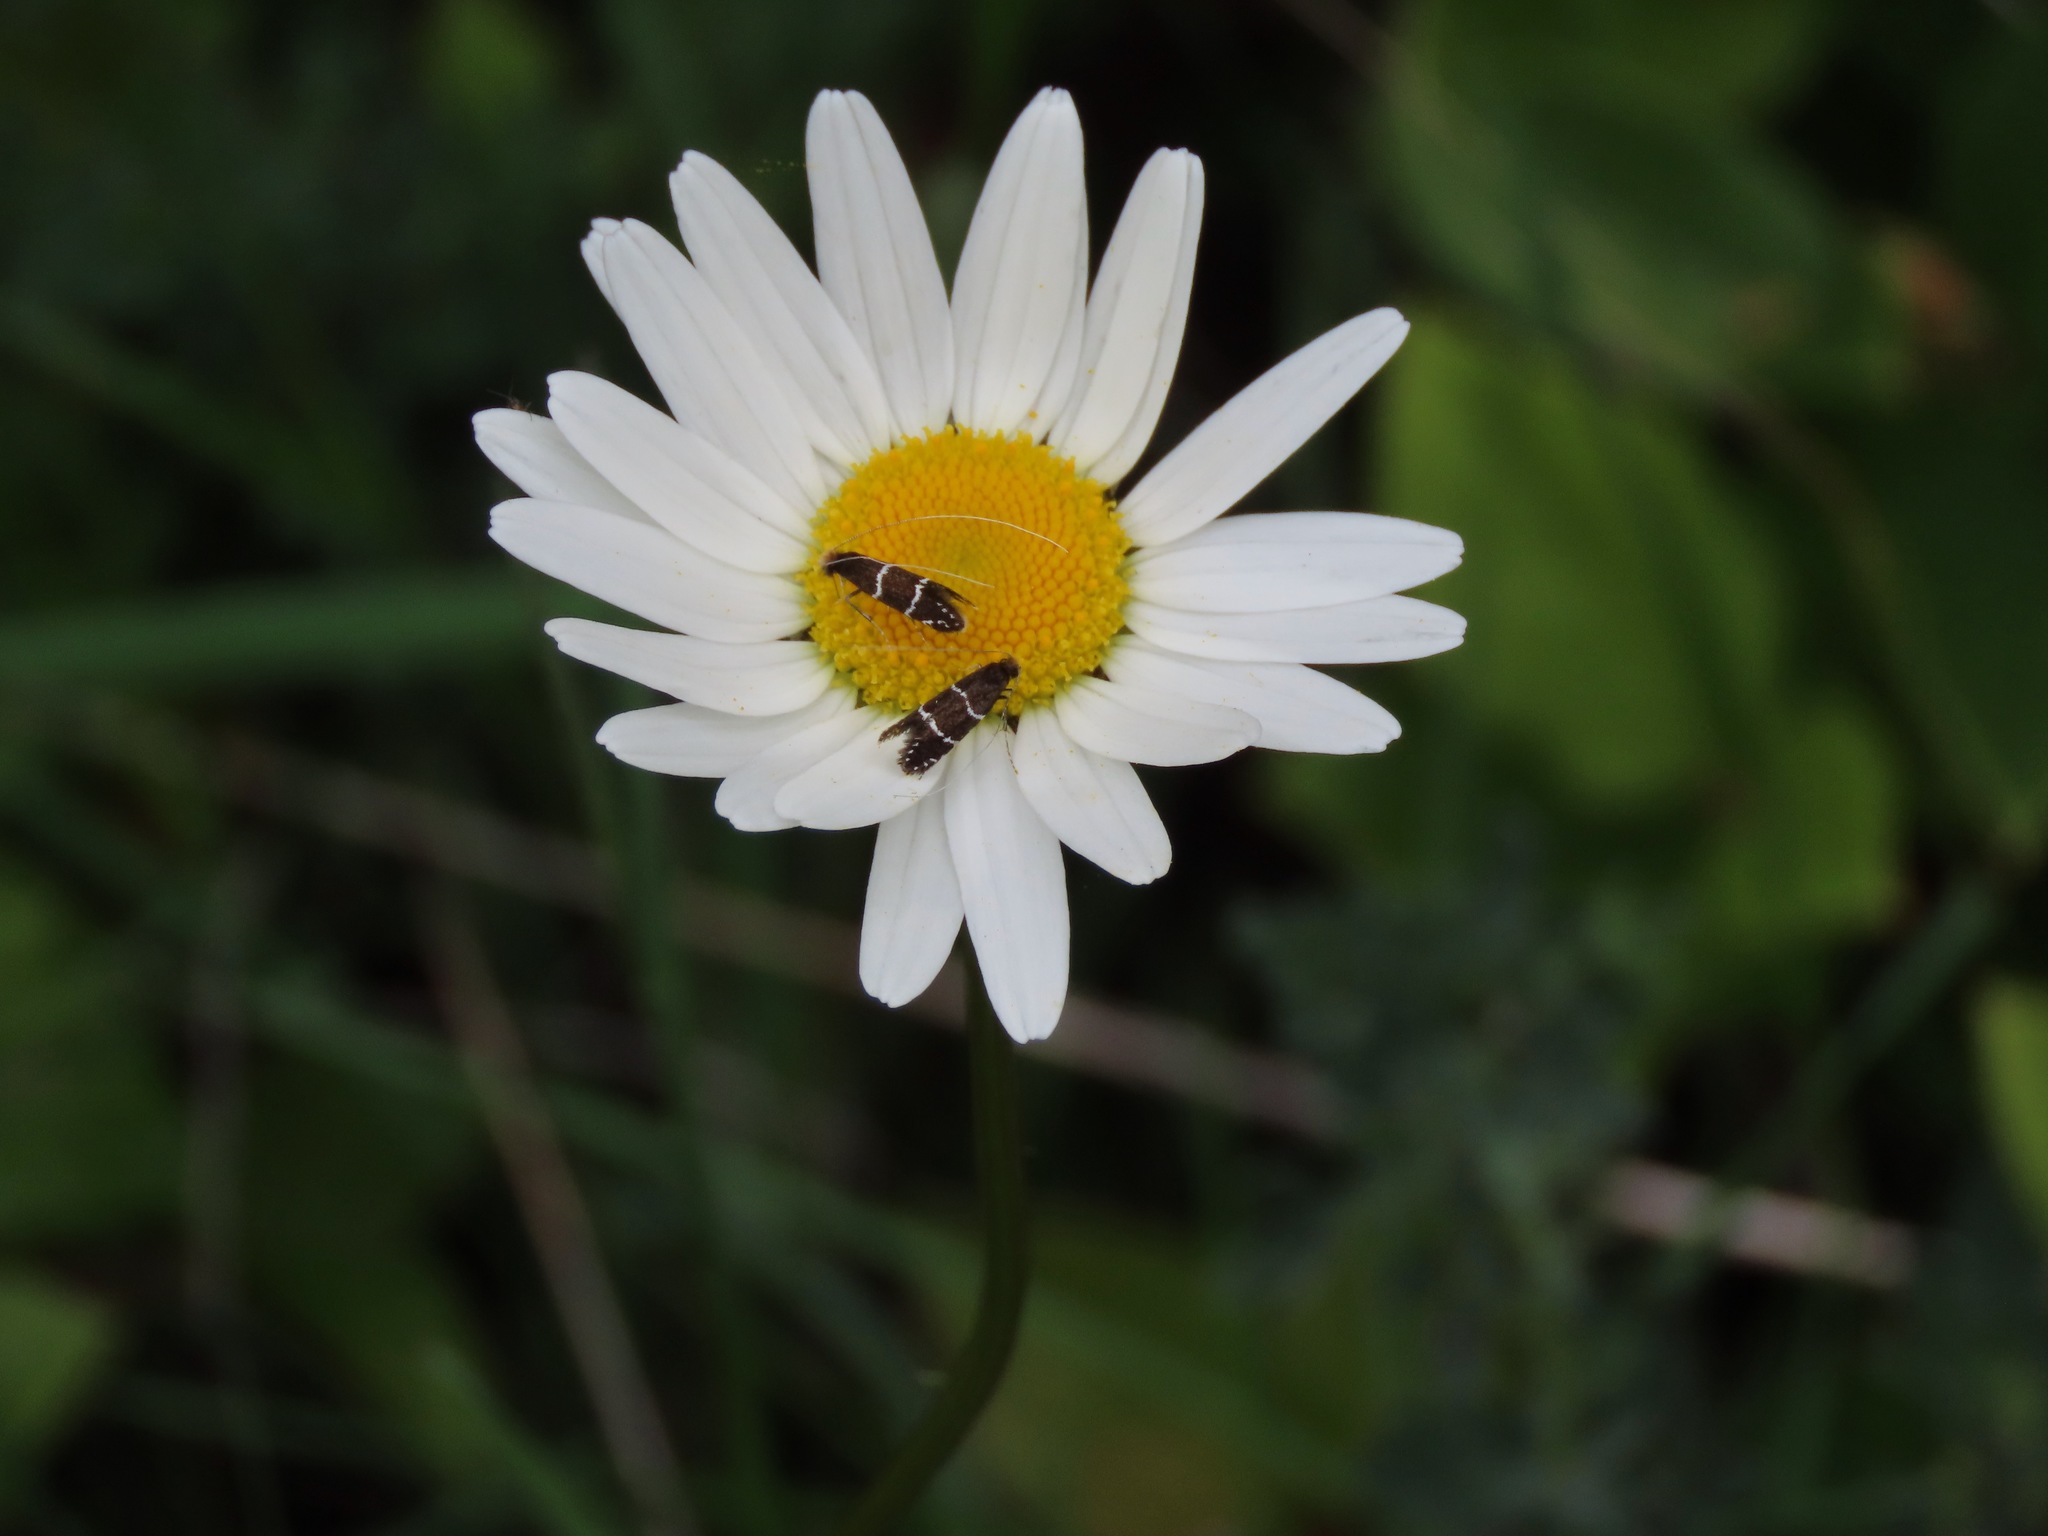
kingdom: Animalia
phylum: Arthropoda
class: Insecta
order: Lepidoptera
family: Adelidae
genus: Adela
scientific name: Adela septentrionella
